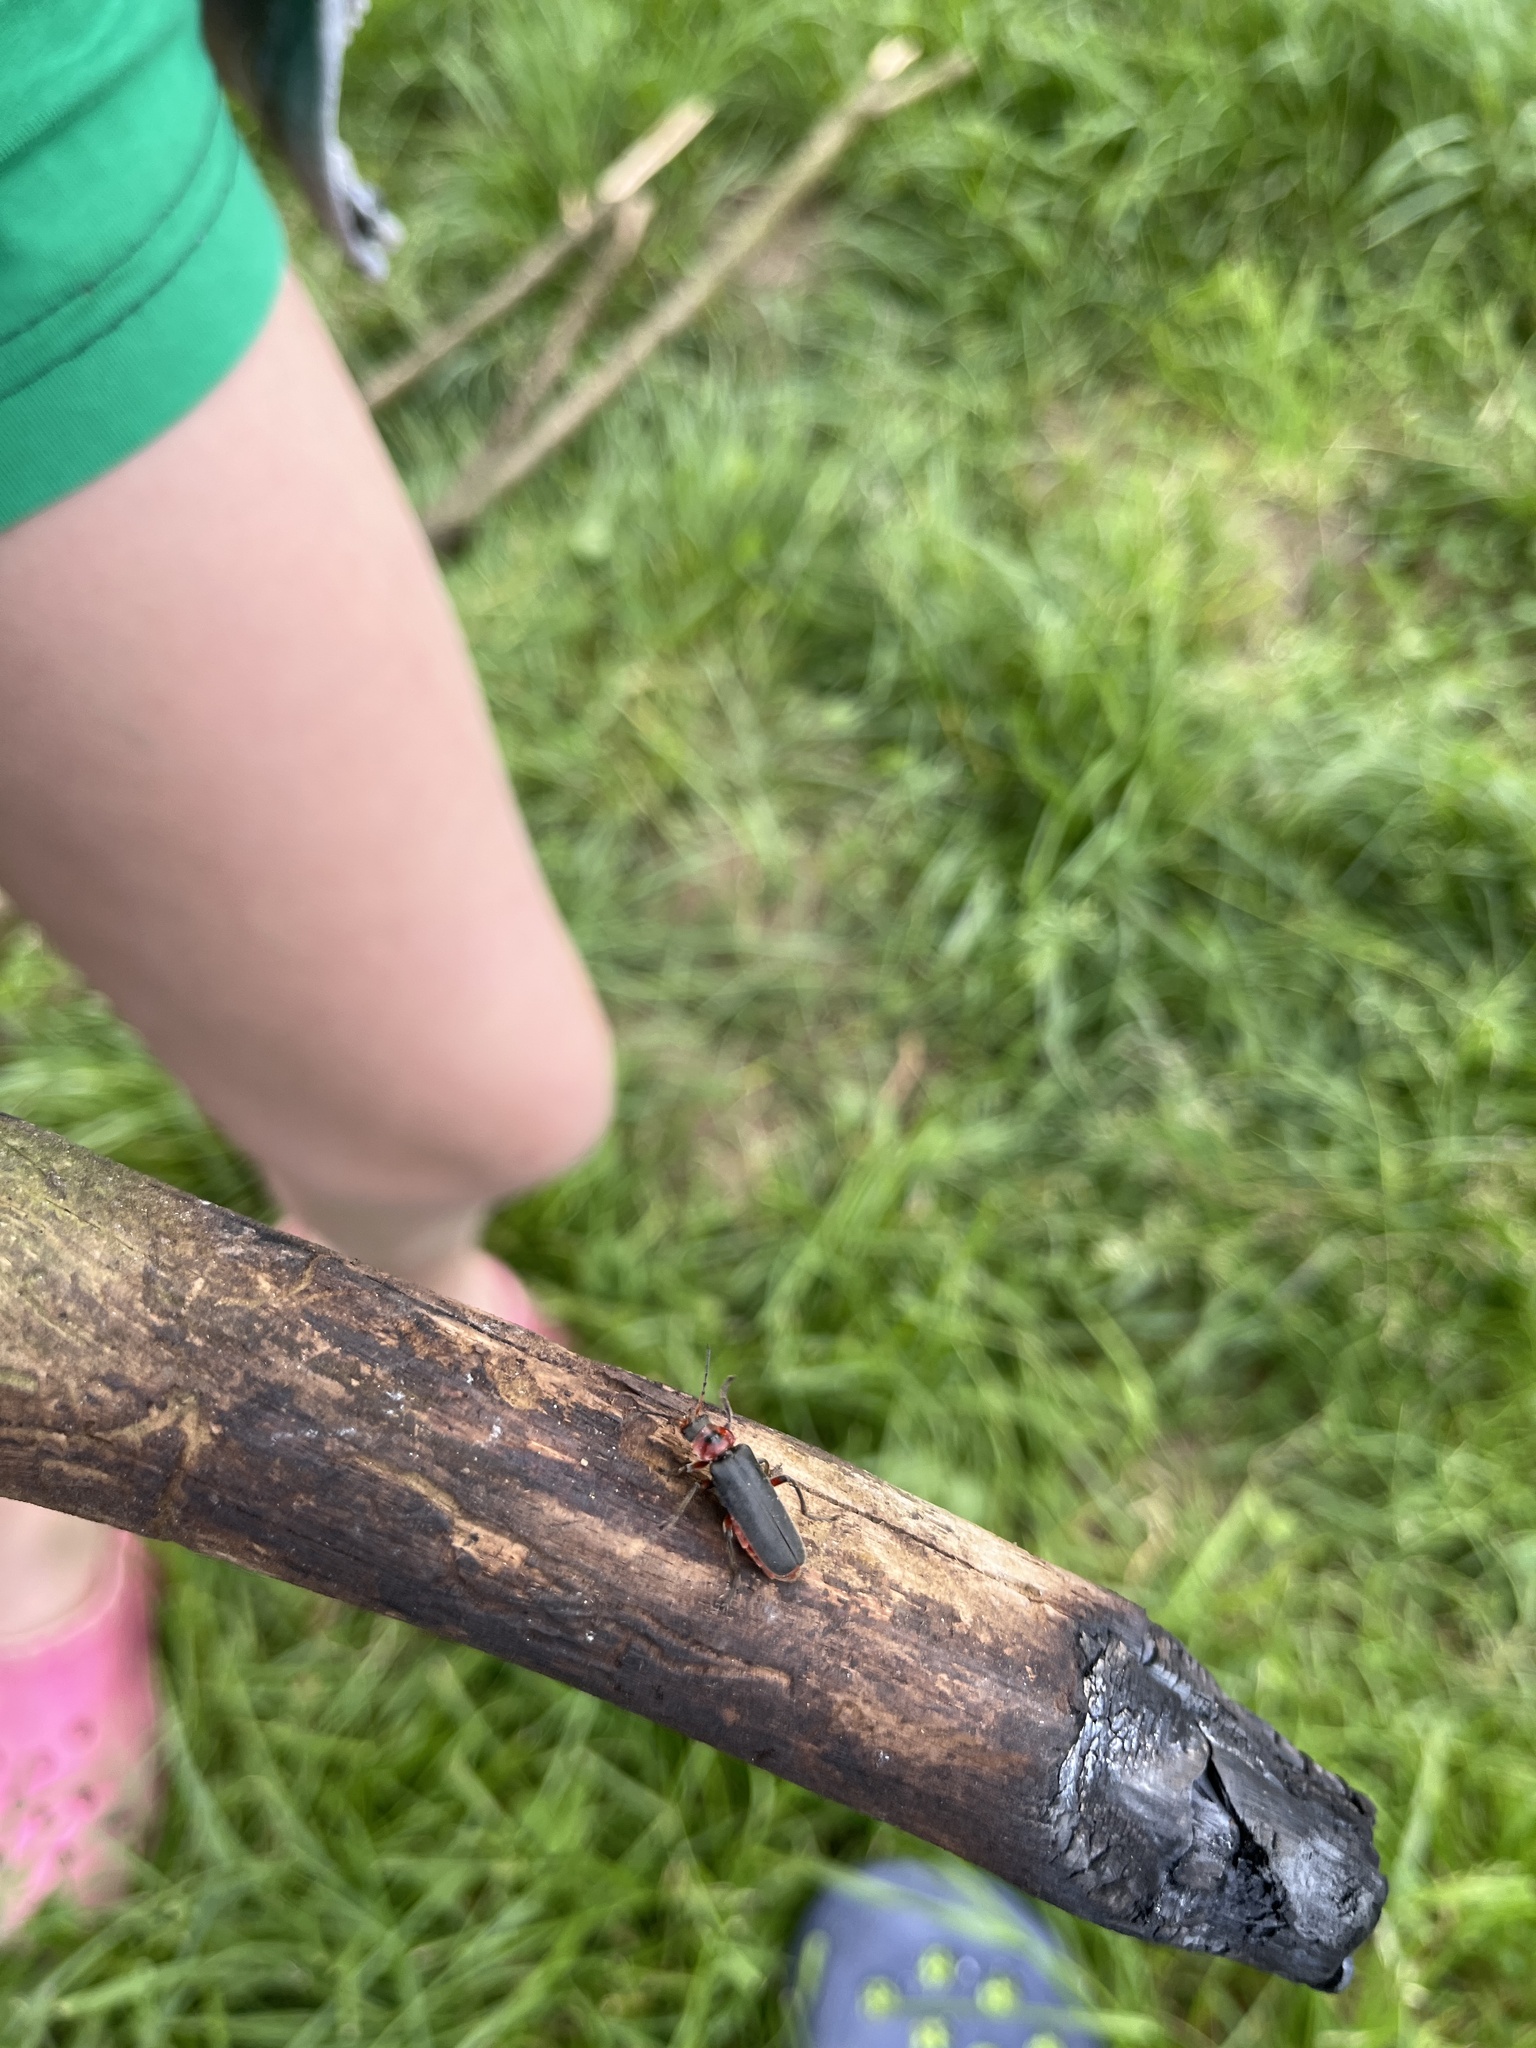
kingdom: Animalia
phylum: Arthropoda
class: Insecta
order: Coleoptera
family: Cantharidae
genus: Cantharis
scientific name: Cantharis rustica
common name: Soldier beetle
